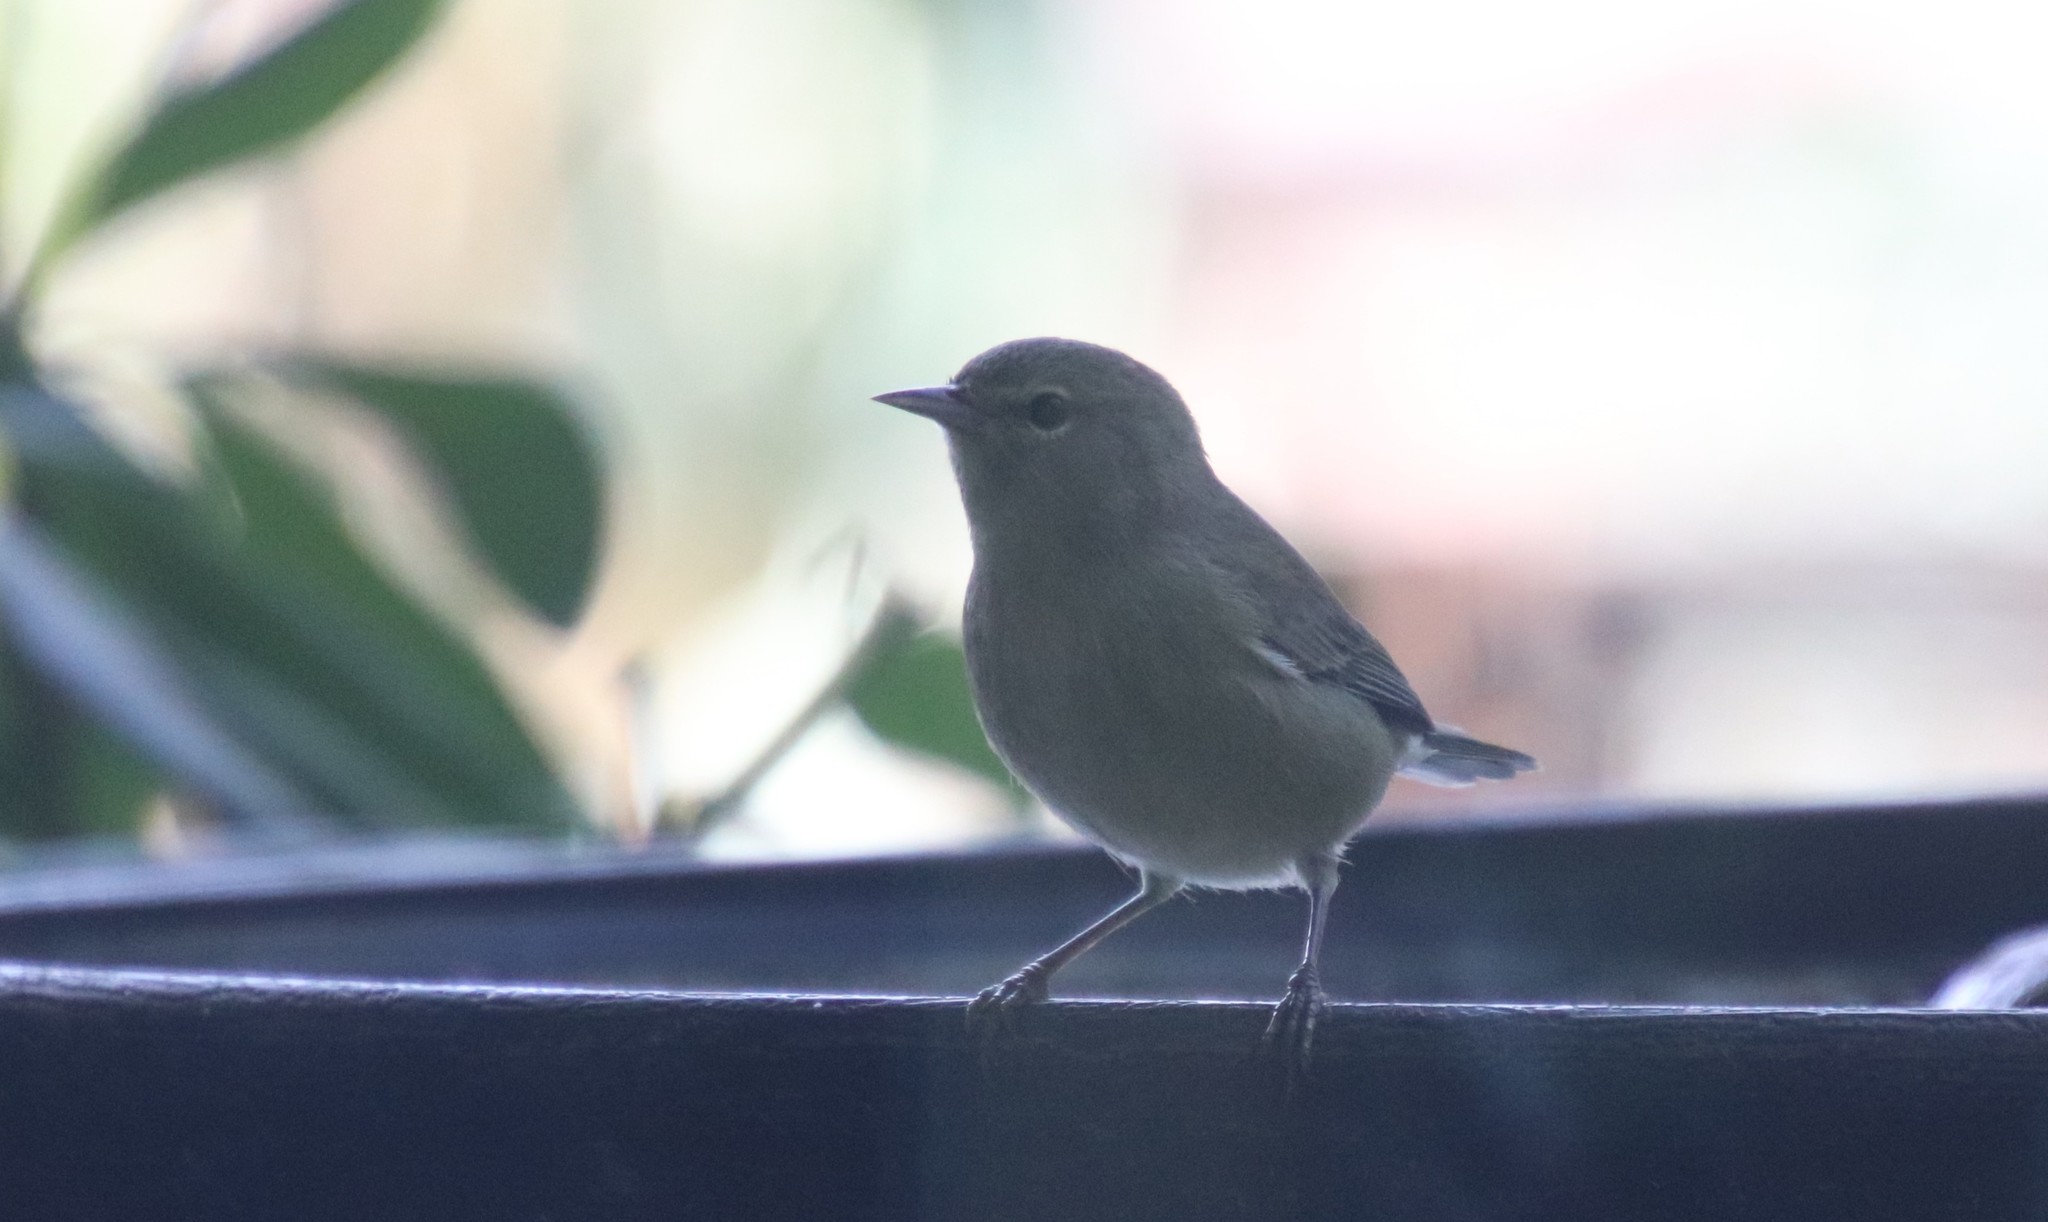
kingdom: Animalia
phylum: Chordata
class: Aves
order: Passeriformes
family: Parulidae
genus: Leiothlypis
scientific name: Leiothlypis celata
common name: Orange-crowned warbler
